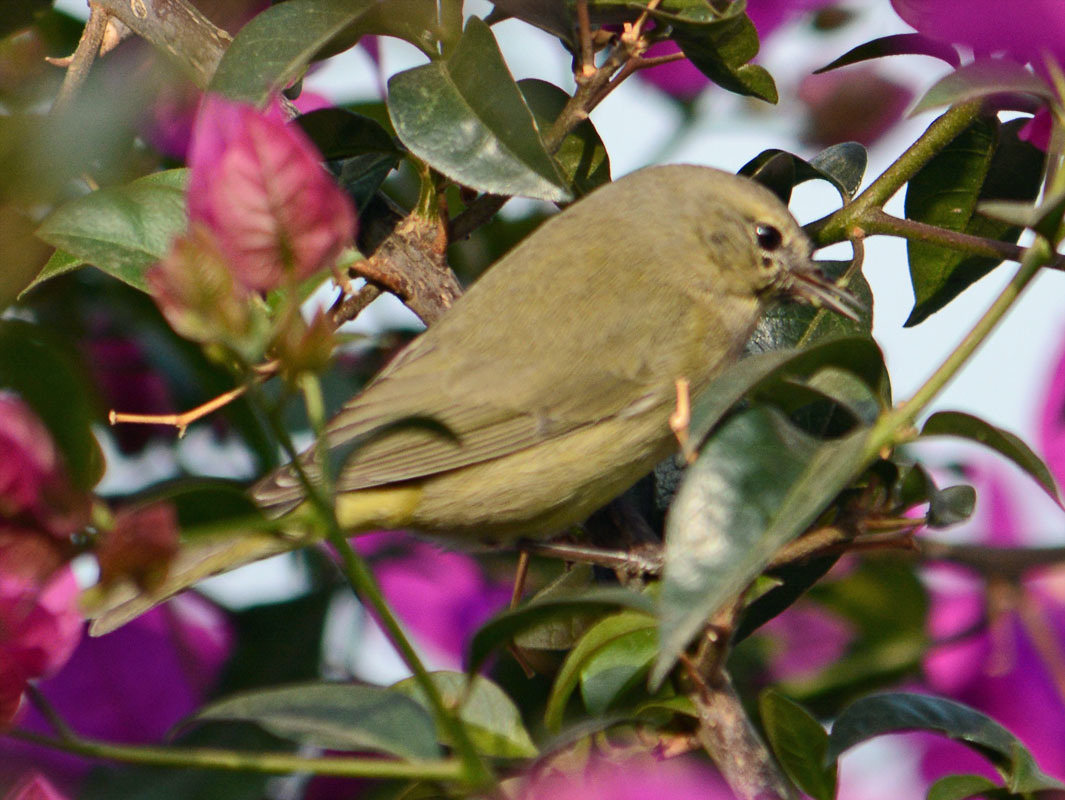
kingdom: Animalia
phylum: Chordata
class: Aves
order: Passeriformes
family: Parulidae
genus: Leiothlypis
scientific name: Leiothlypis celata
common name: Orange-crowned warbler
